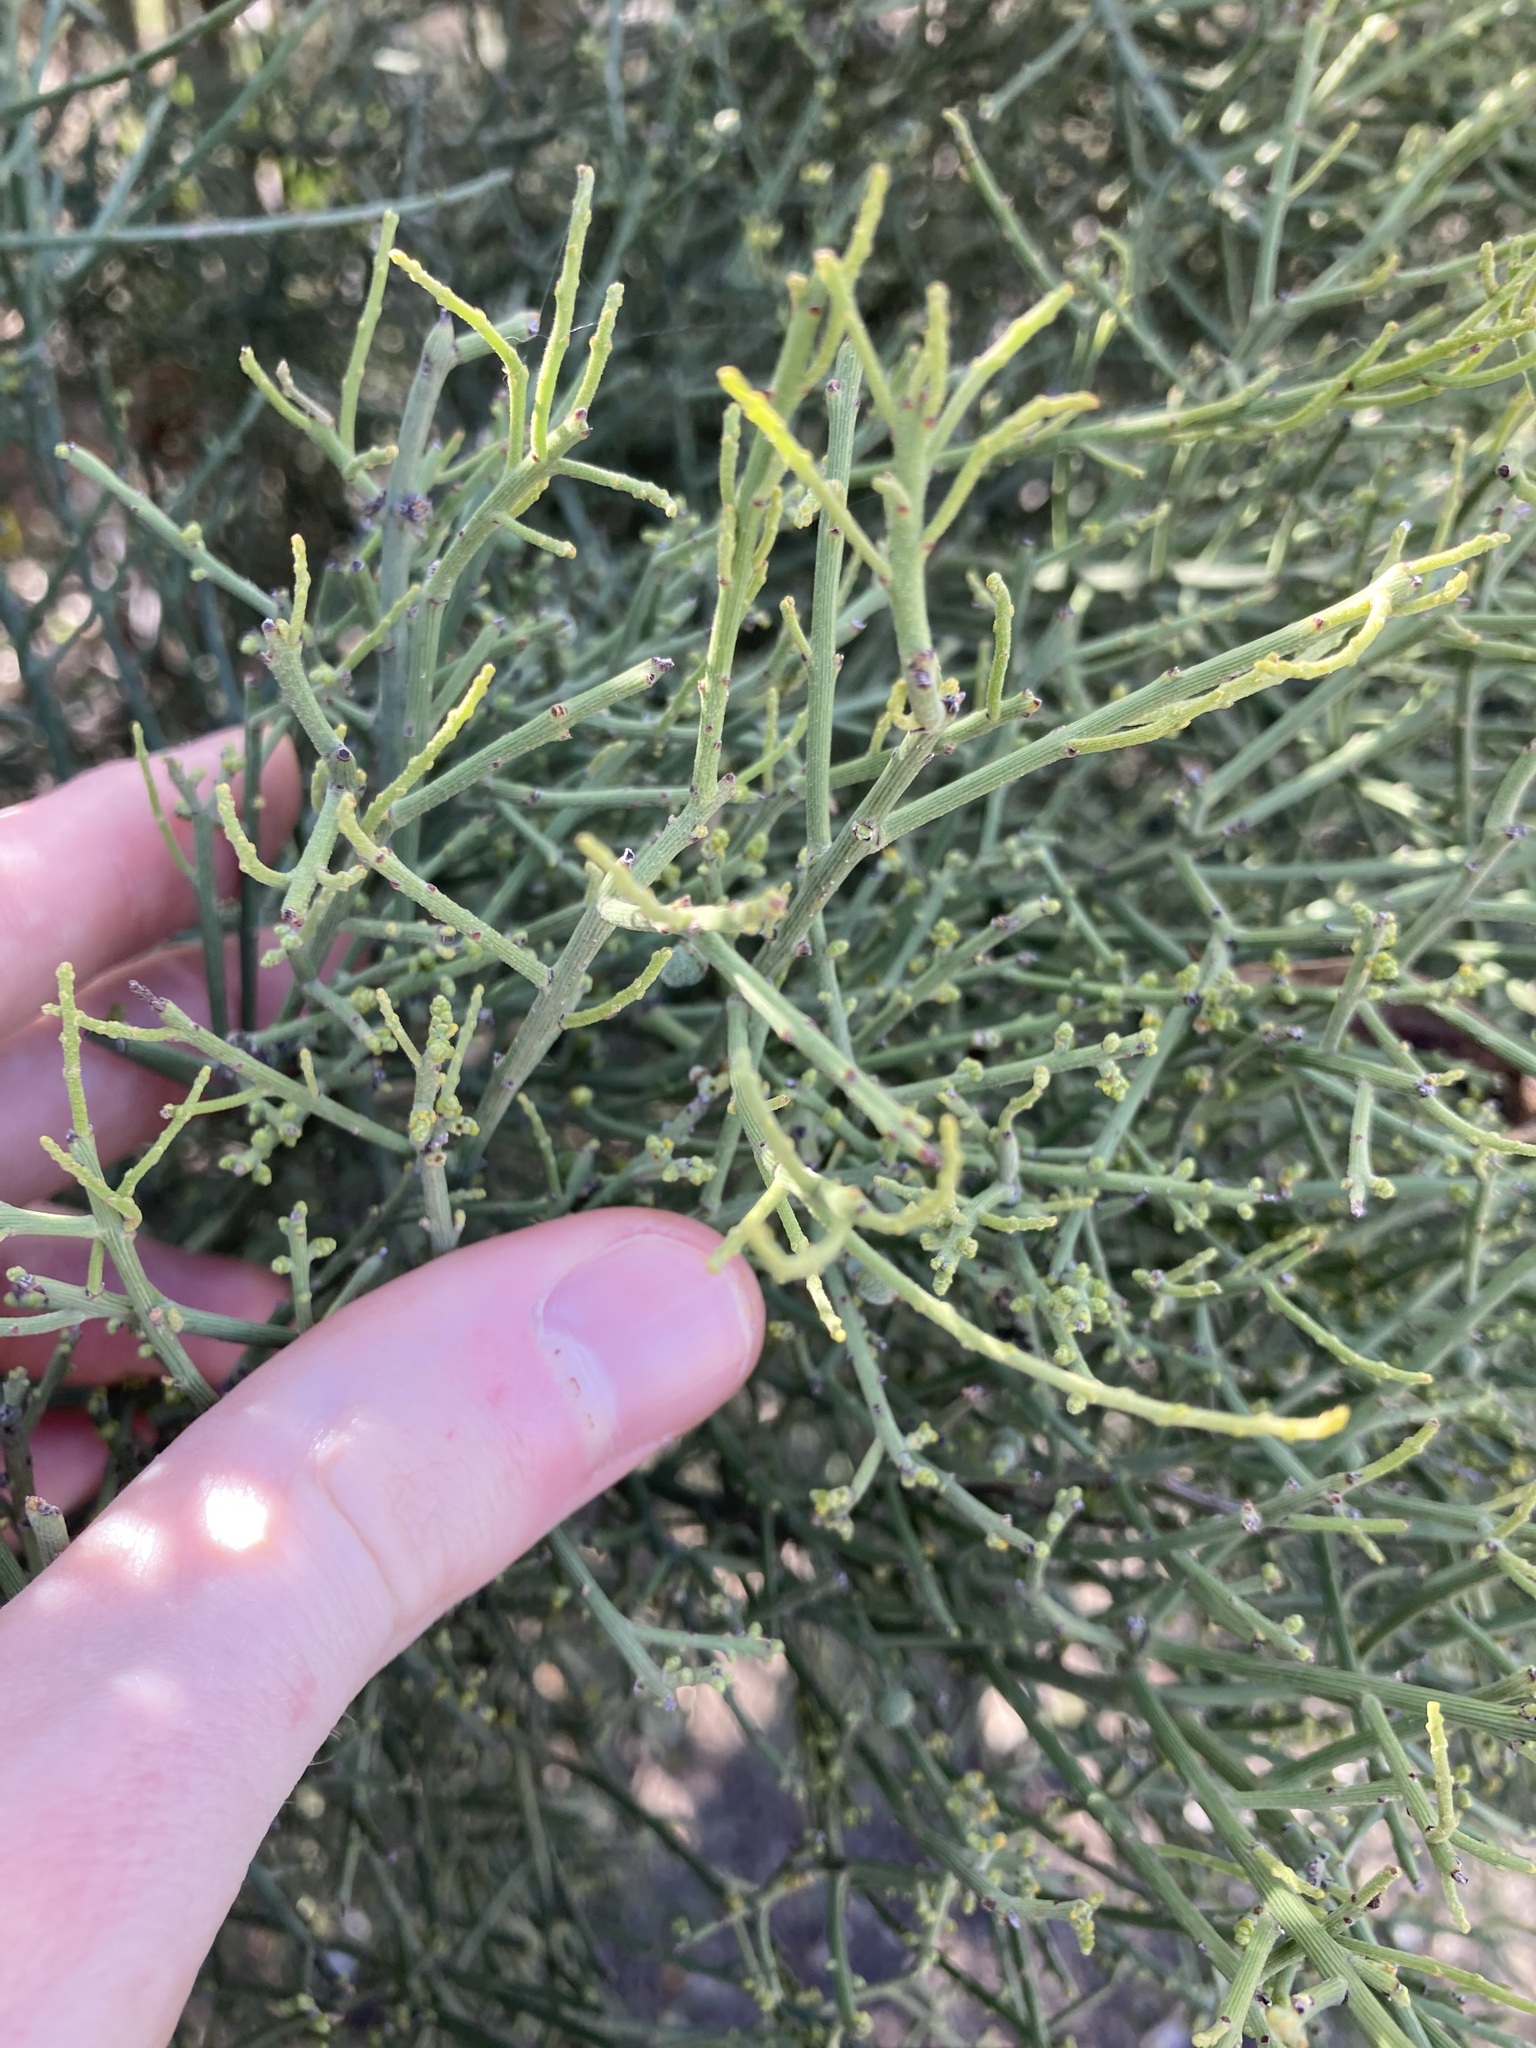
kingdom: Plantae
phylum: Tracheophyta
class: Magnoliopsida
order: Santalales
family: Santalaceae
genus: Exocarpos
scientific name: Exocarpos aphyllus
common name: Leafless ballart
